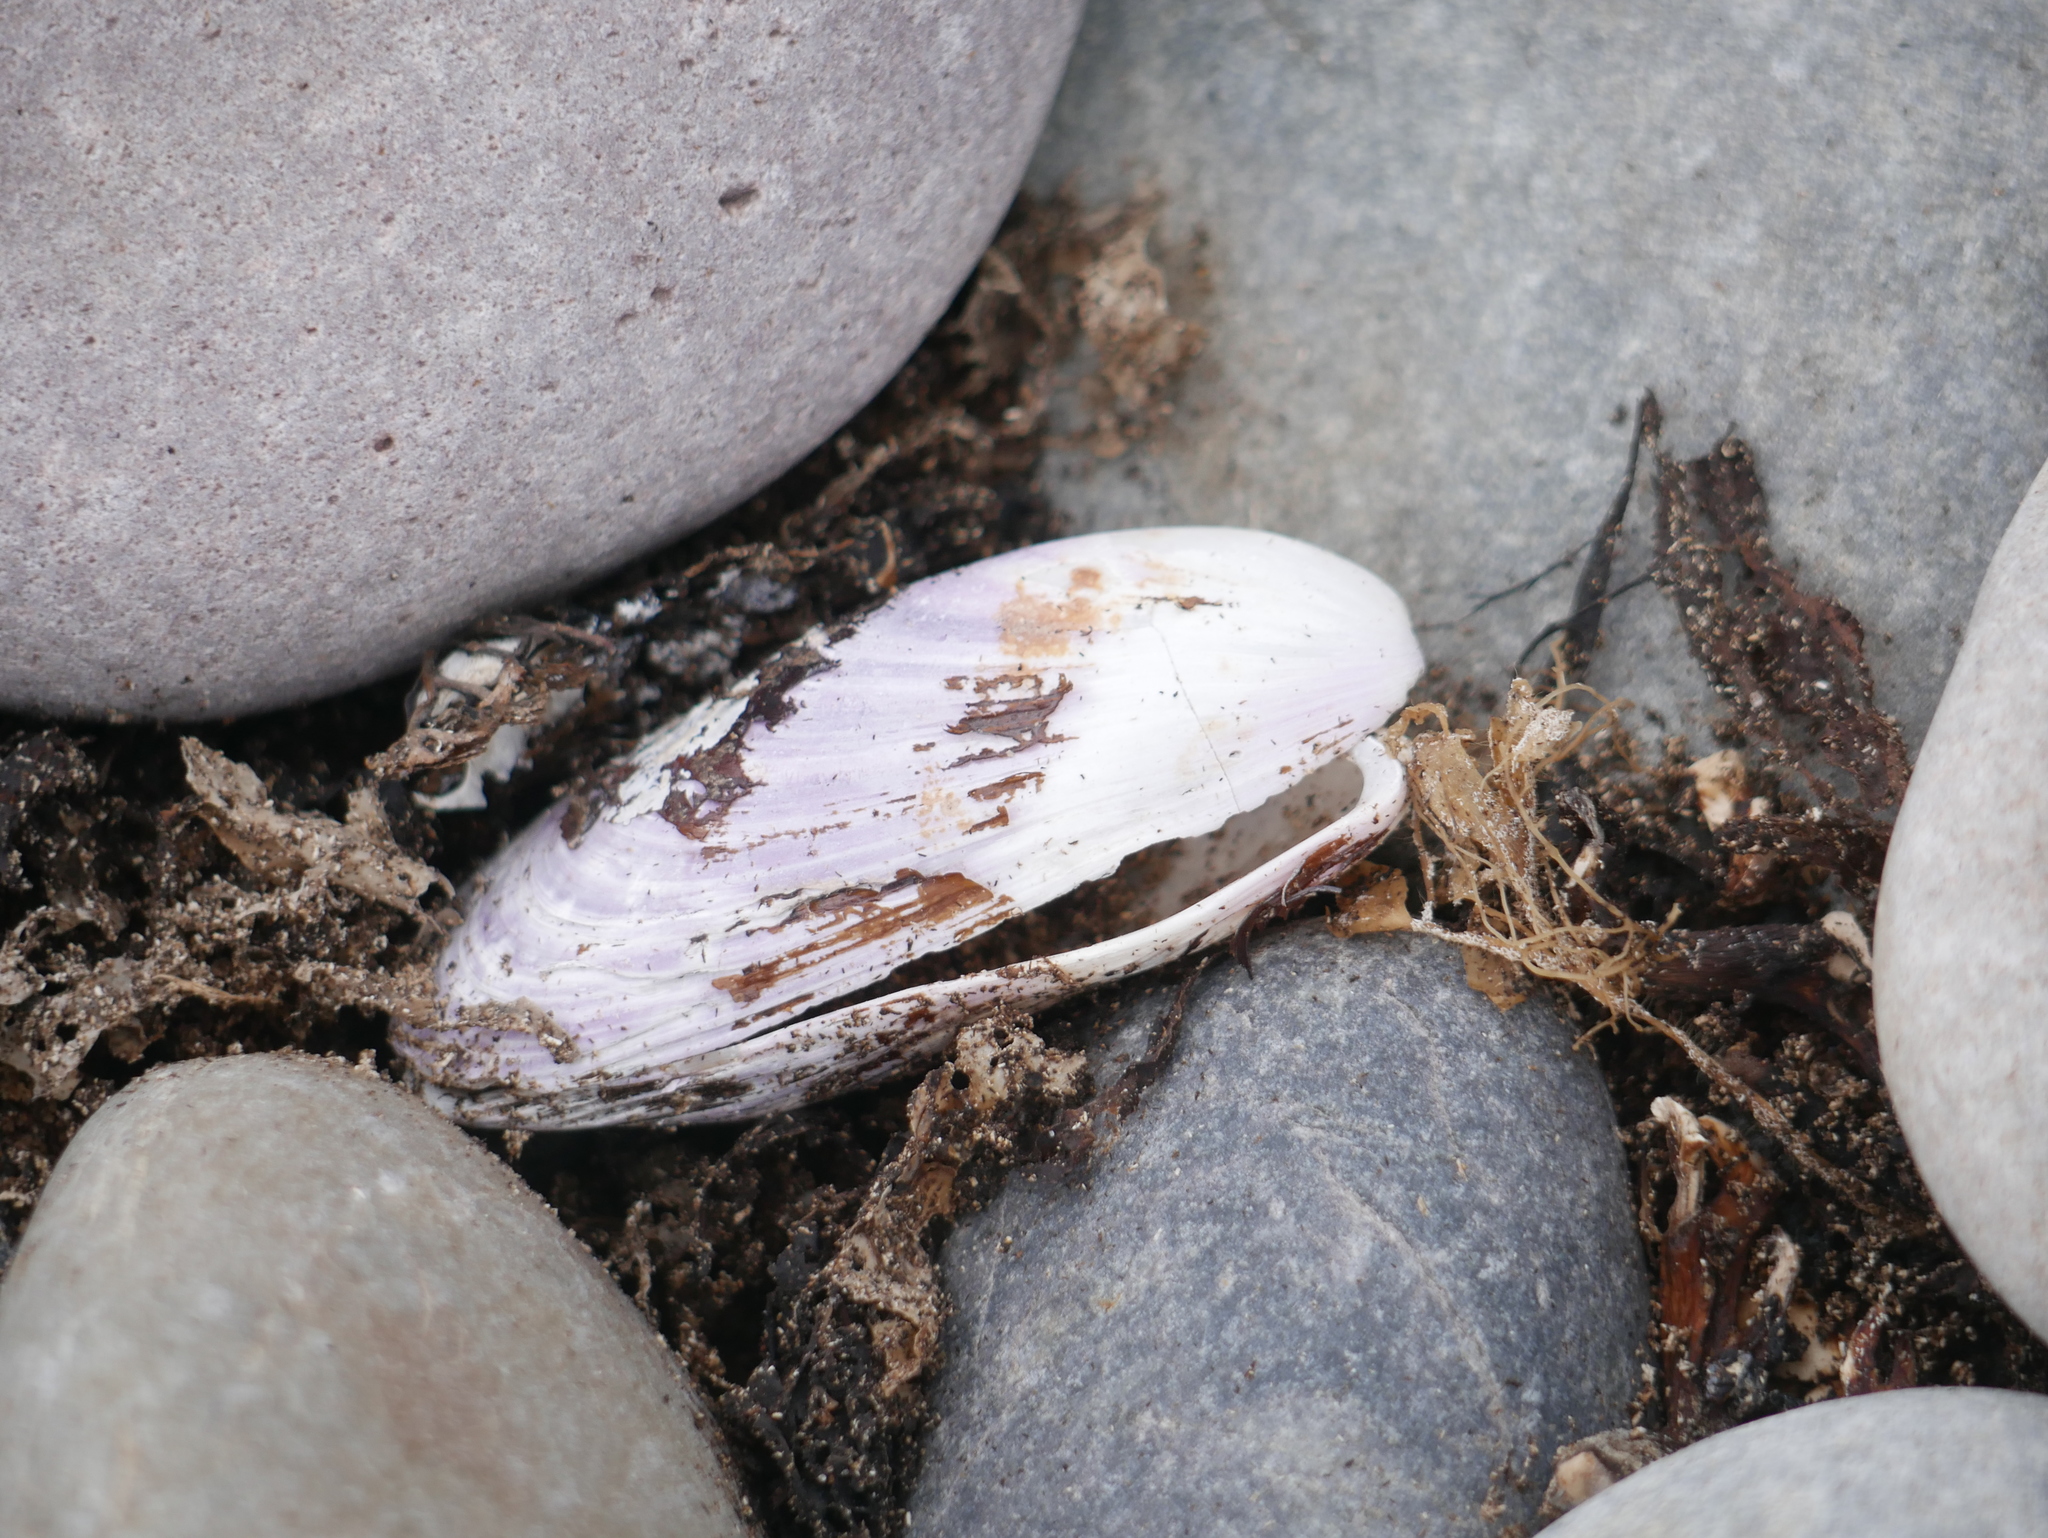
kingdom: Animalia
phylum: Mollusca
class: Bivalvia
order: Mytilida
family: Mytilidae
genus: Modiolus
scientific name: Modiolus modiolus
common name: Horse-mussel
